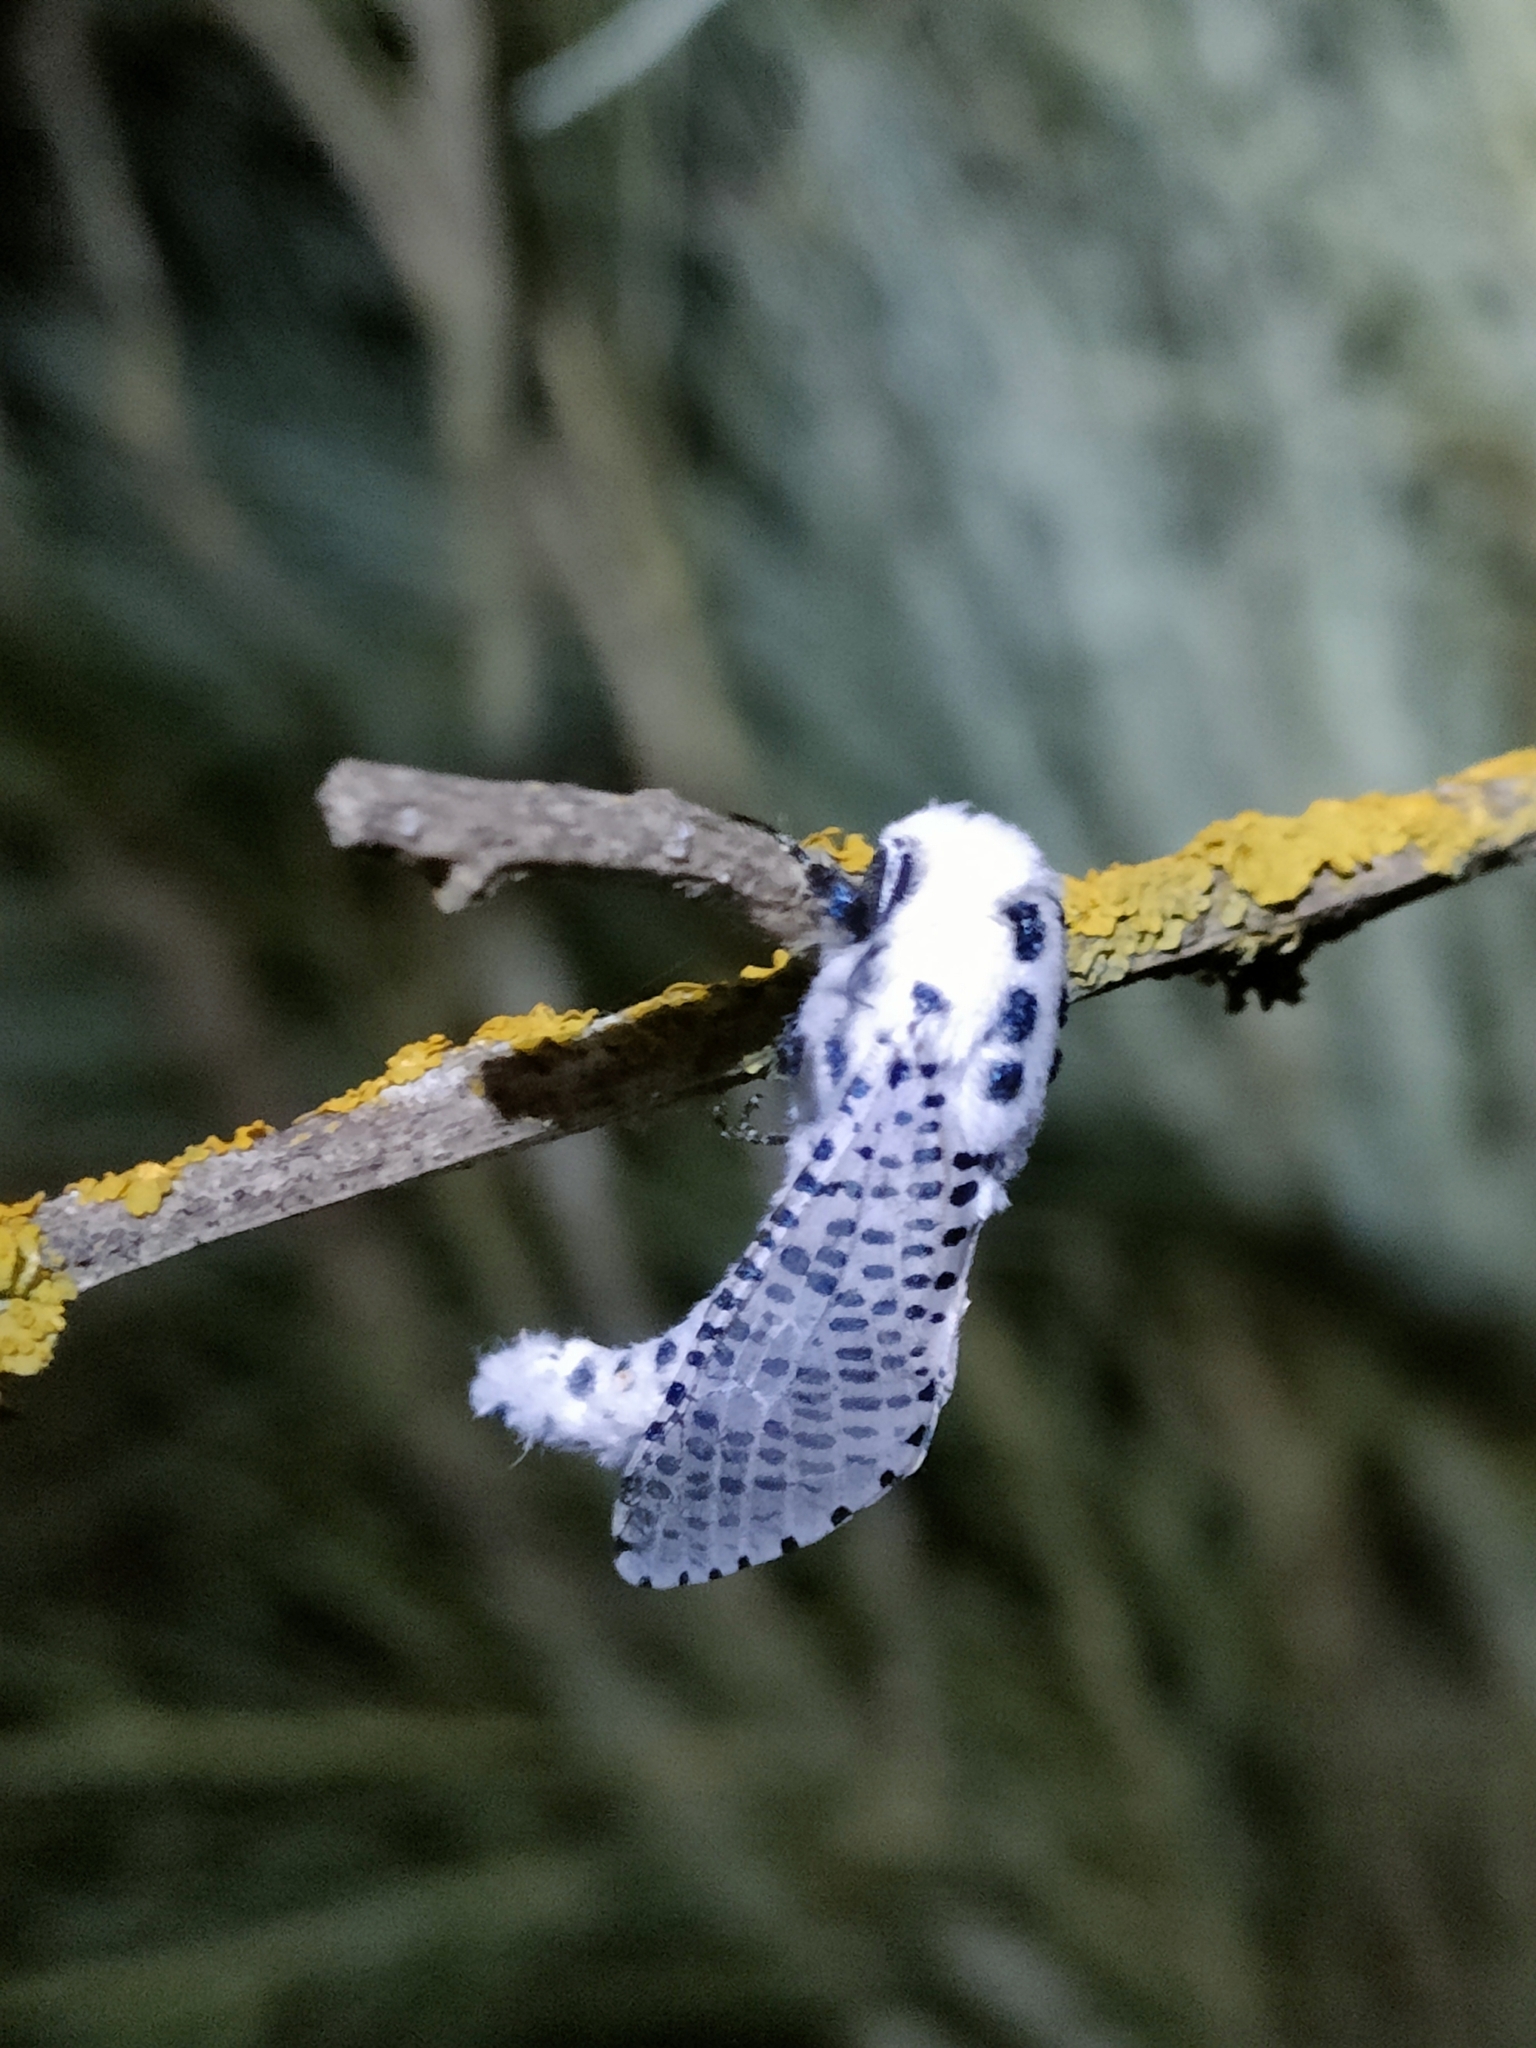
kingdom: Animalia
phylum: Arthropoda
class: Insecta
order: Lepidoptera
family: Cossidae
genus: Zeuzera
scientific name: Zeuzera pyrina
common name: Leopard moth
